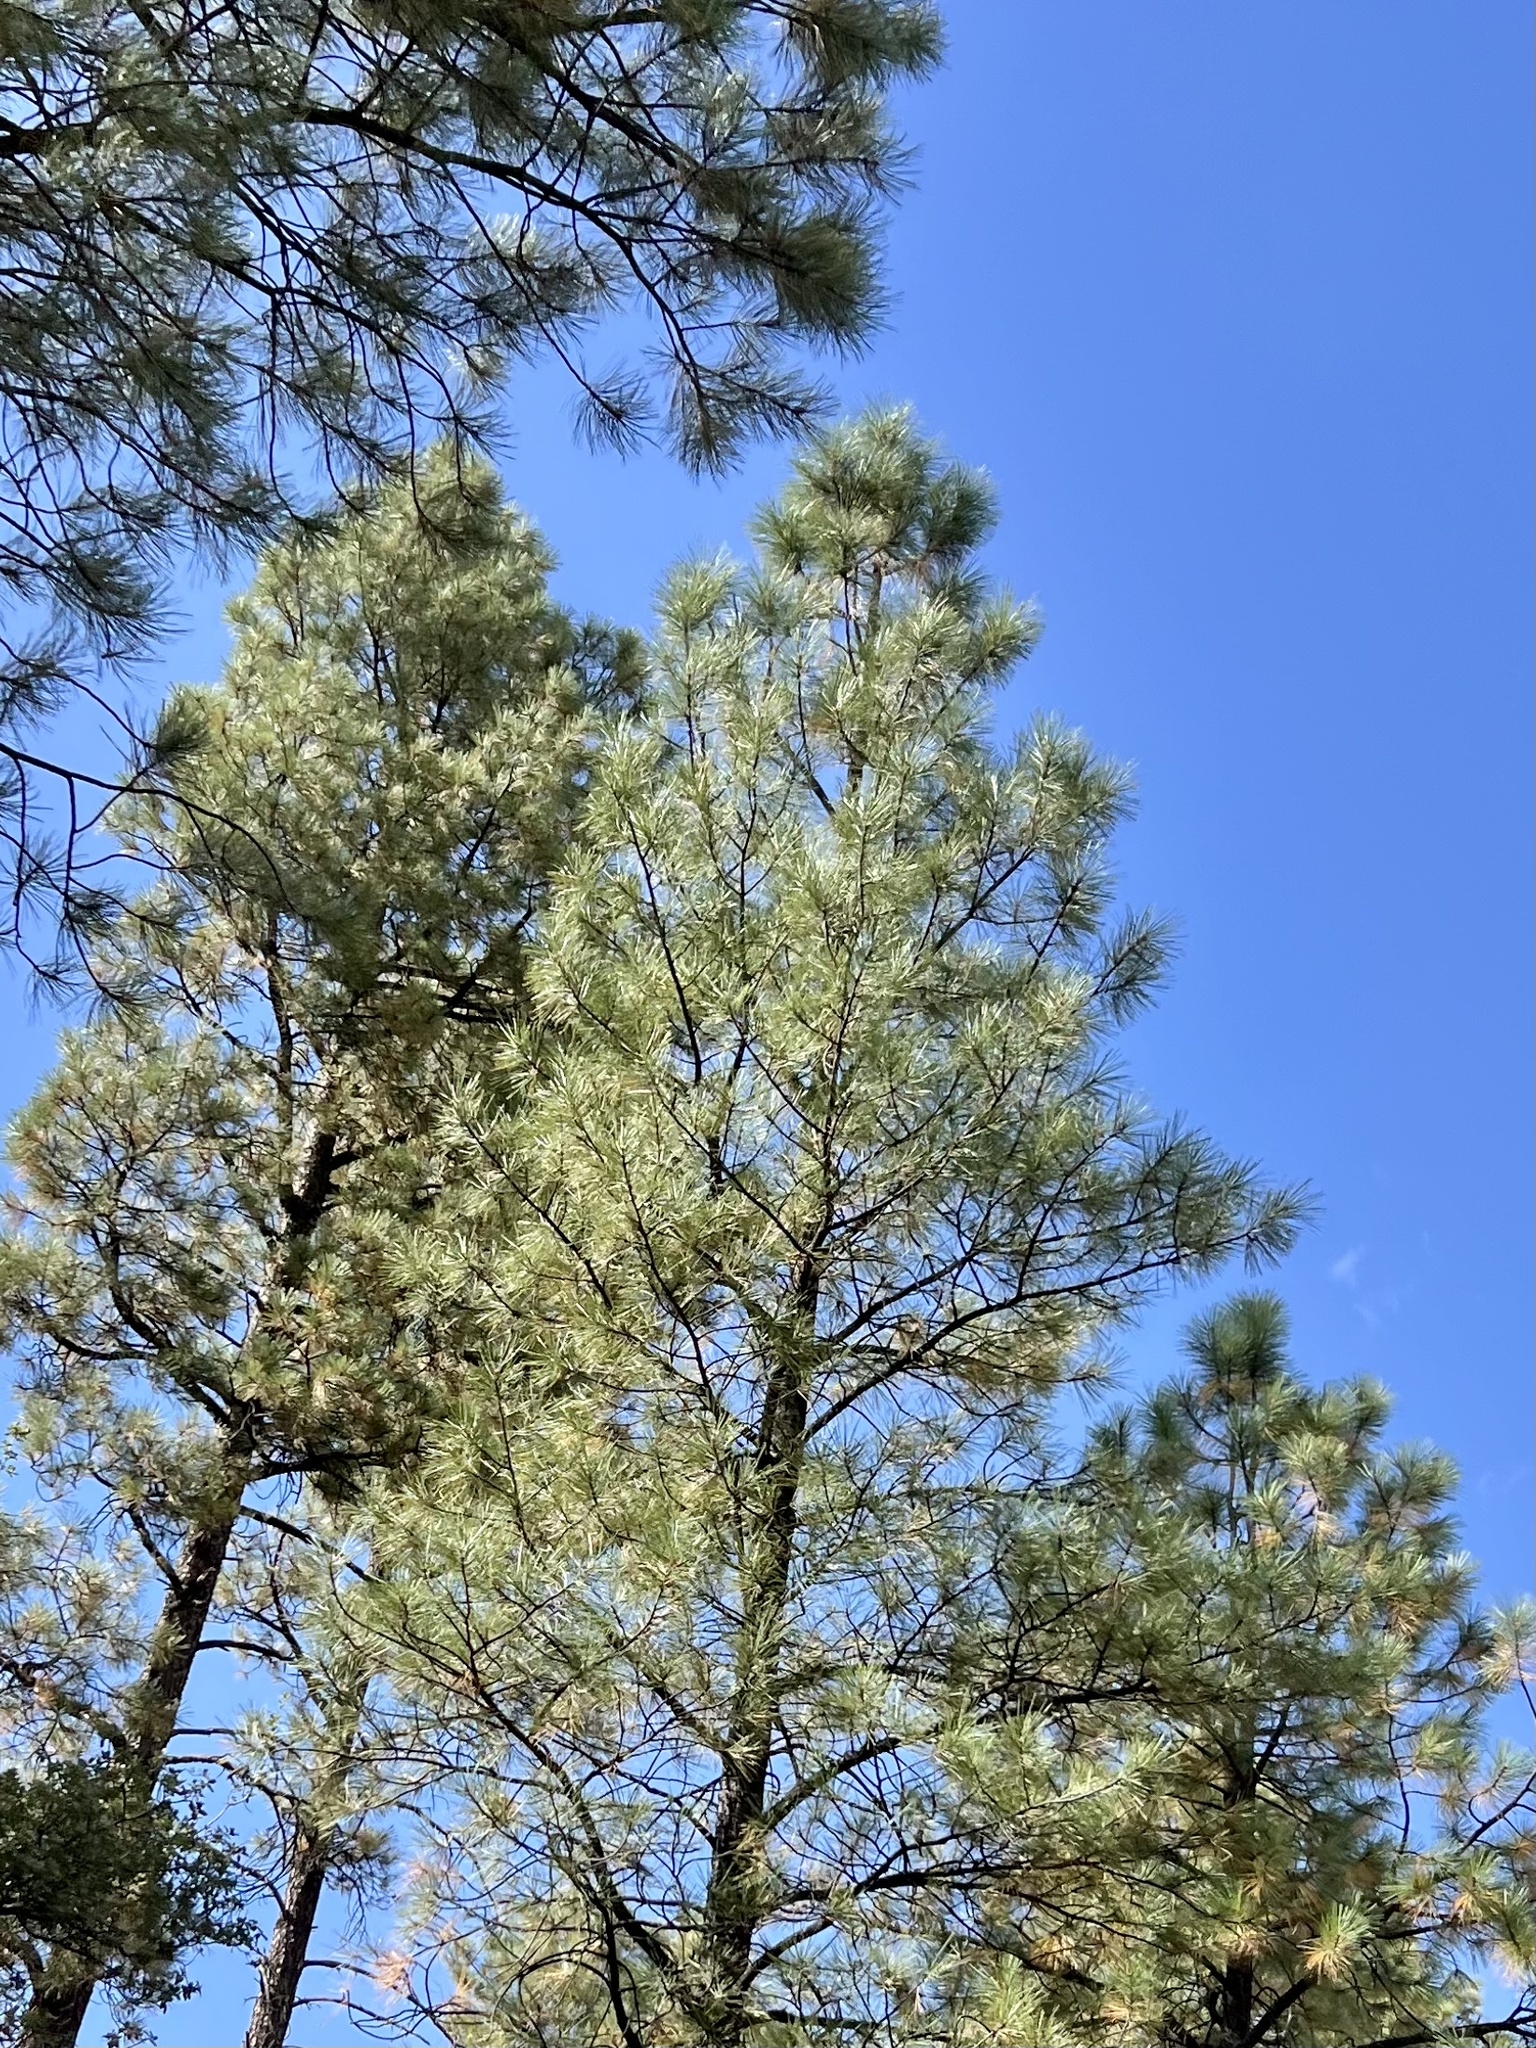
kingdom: Plantae
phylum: Tracheophyta
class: Pinopsida
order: Pinales
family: Pinaceae
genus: Pinus
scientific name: Pinus ponderosa
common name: Western yellow-pine
